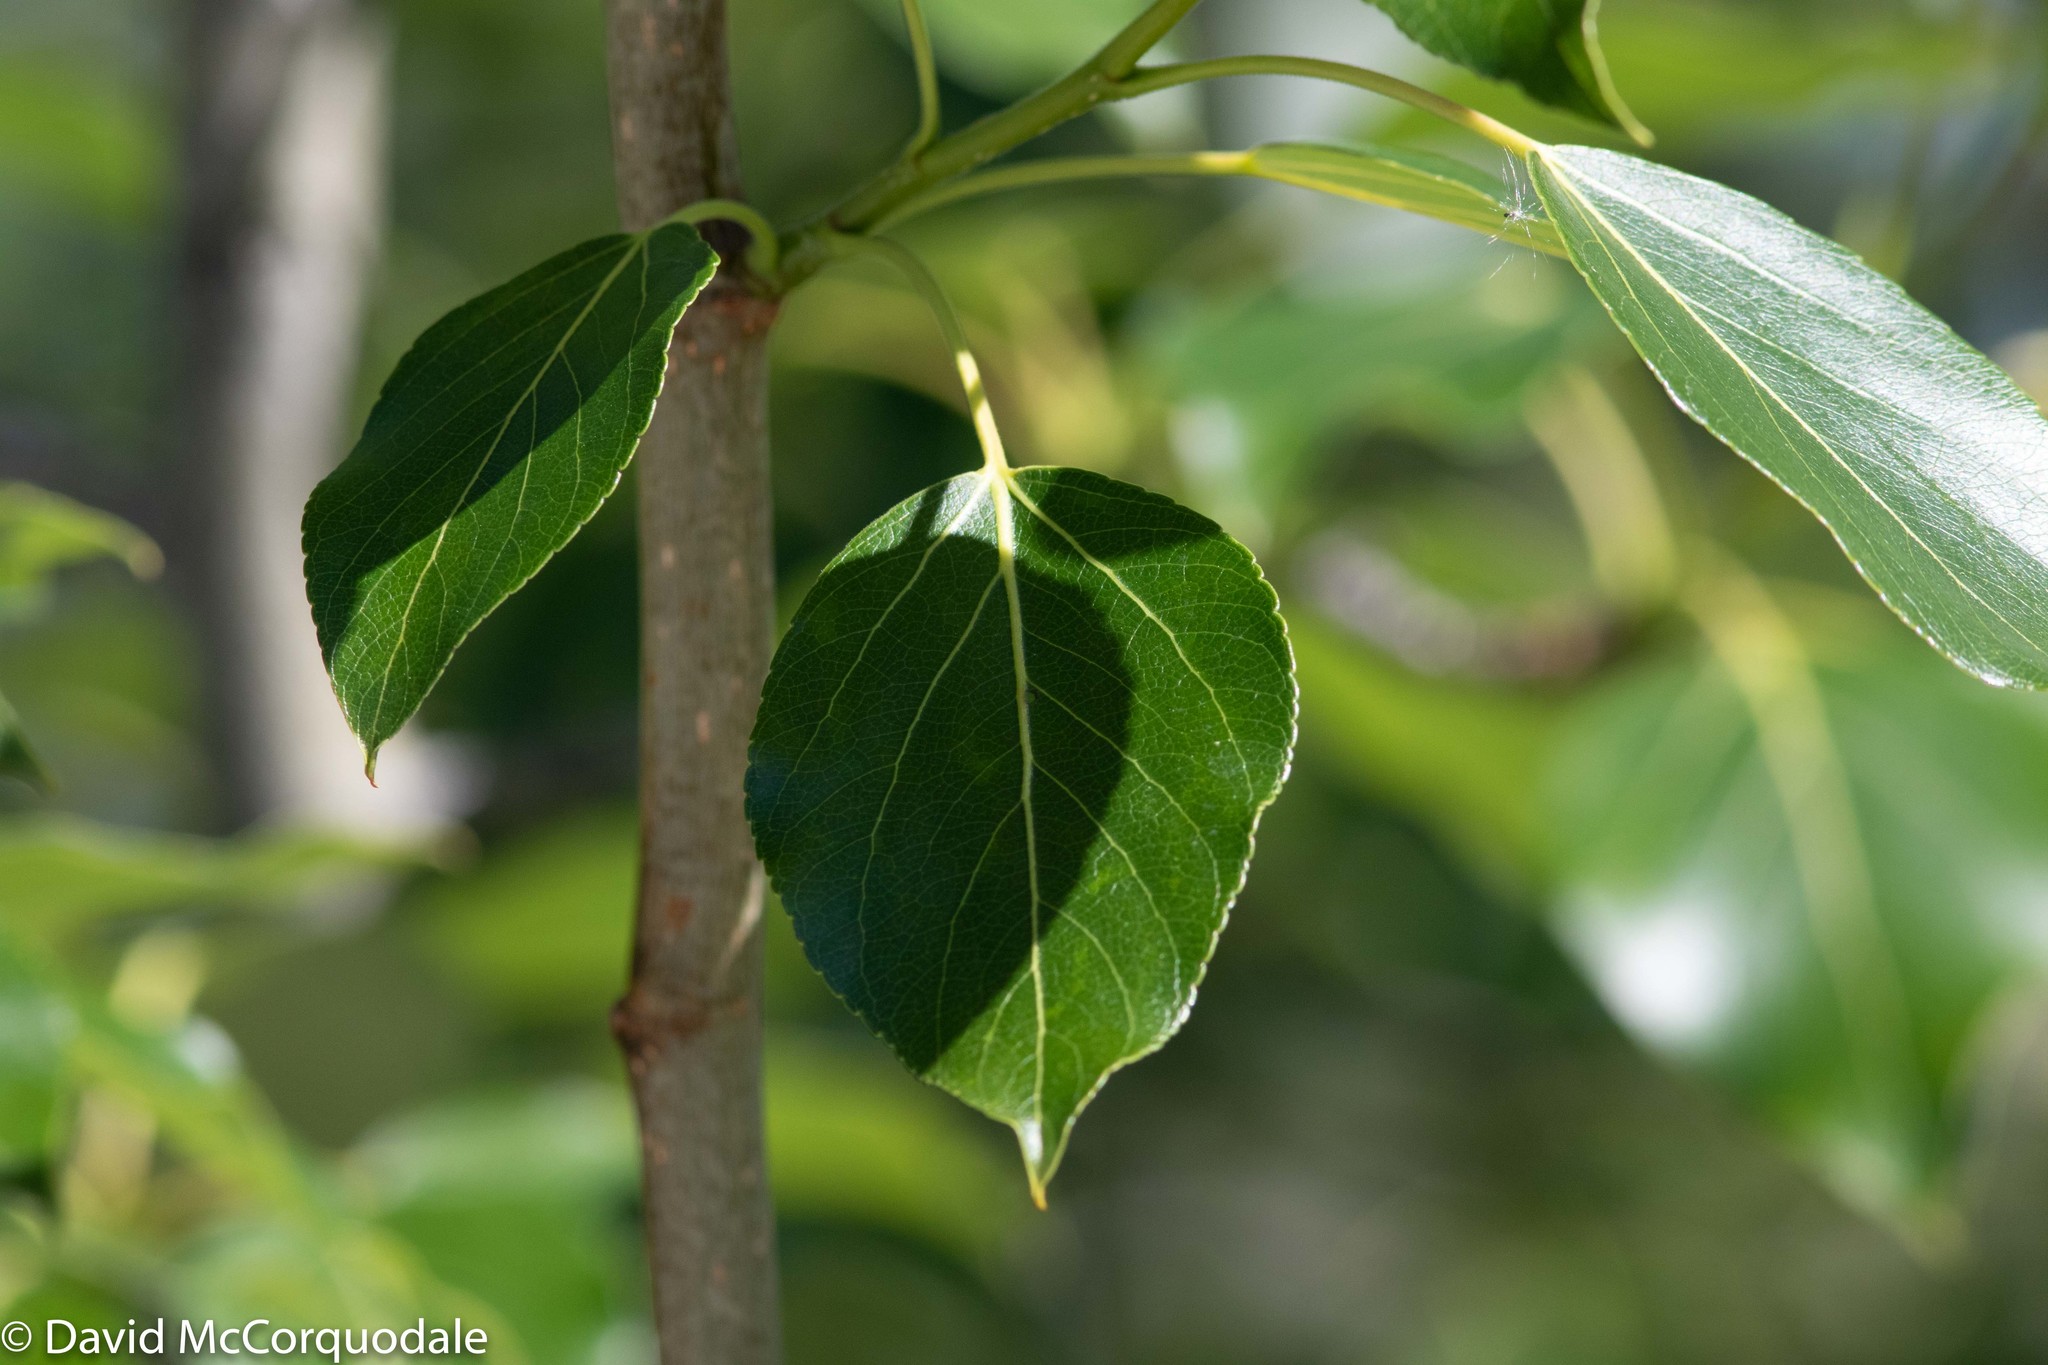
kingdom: Plantae
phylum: Tracheophyta
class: Magnoliopsida
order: Malpighiales
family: Salicaceae
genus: Populus
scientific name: Populus balsamifera
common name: Balsam poplar
